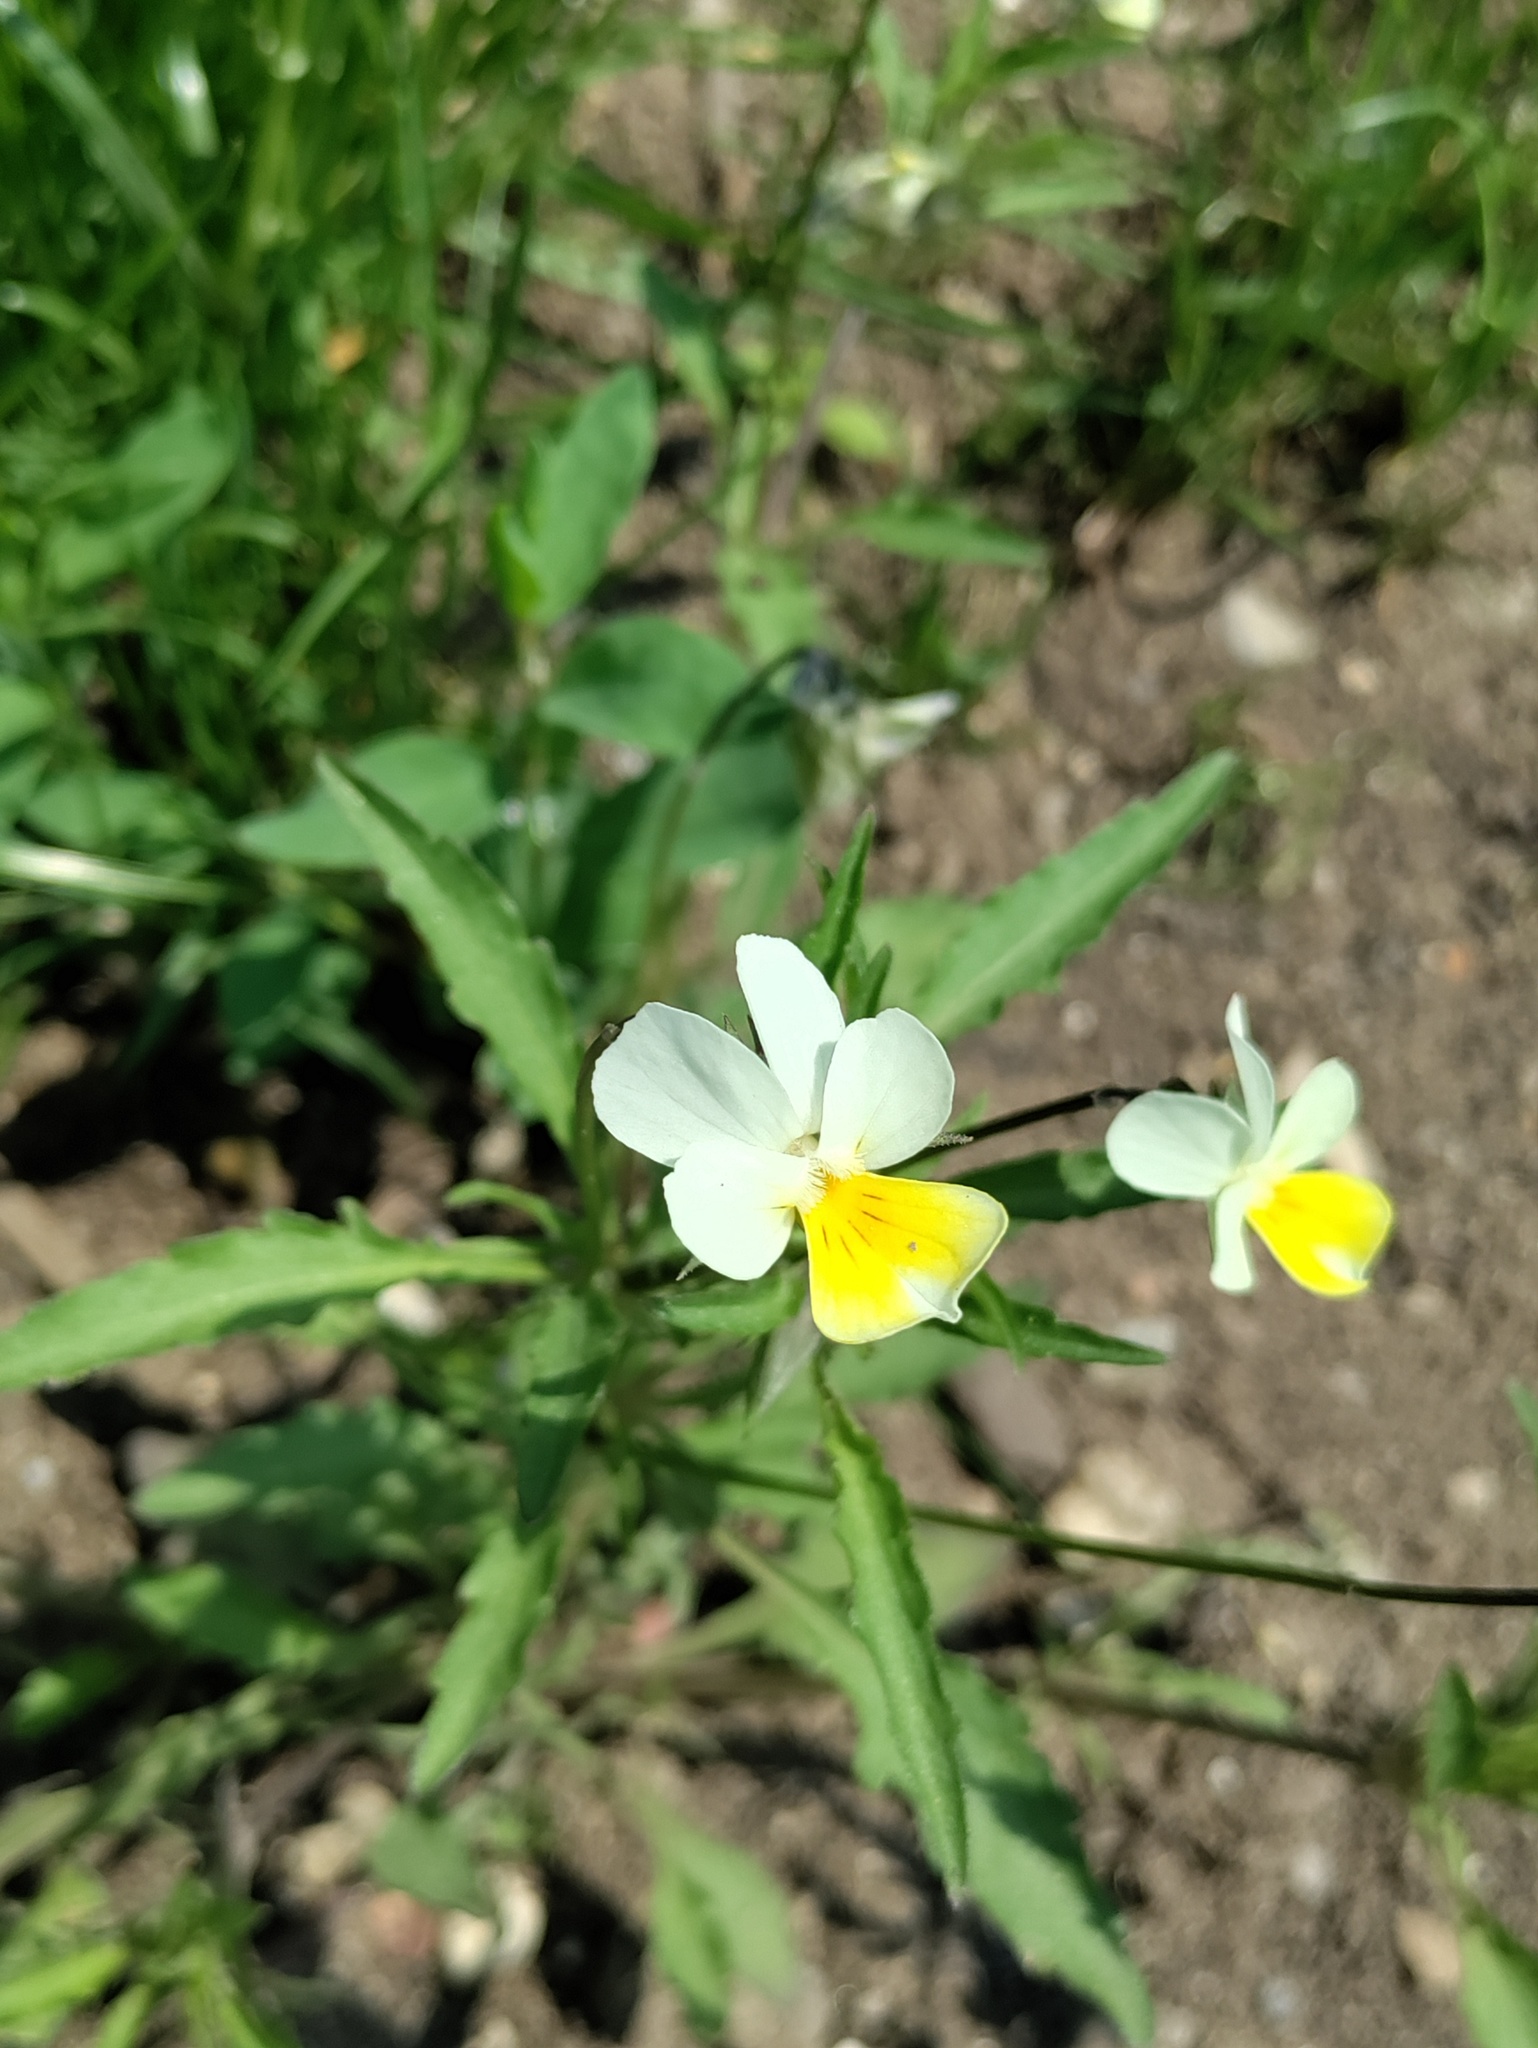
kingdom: Plantae
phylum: Tracheophyta
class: Magnoliopsida
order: Malpighiales
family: Violaceae
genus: Viola
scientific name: Viola arvensis
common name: Field pansy
